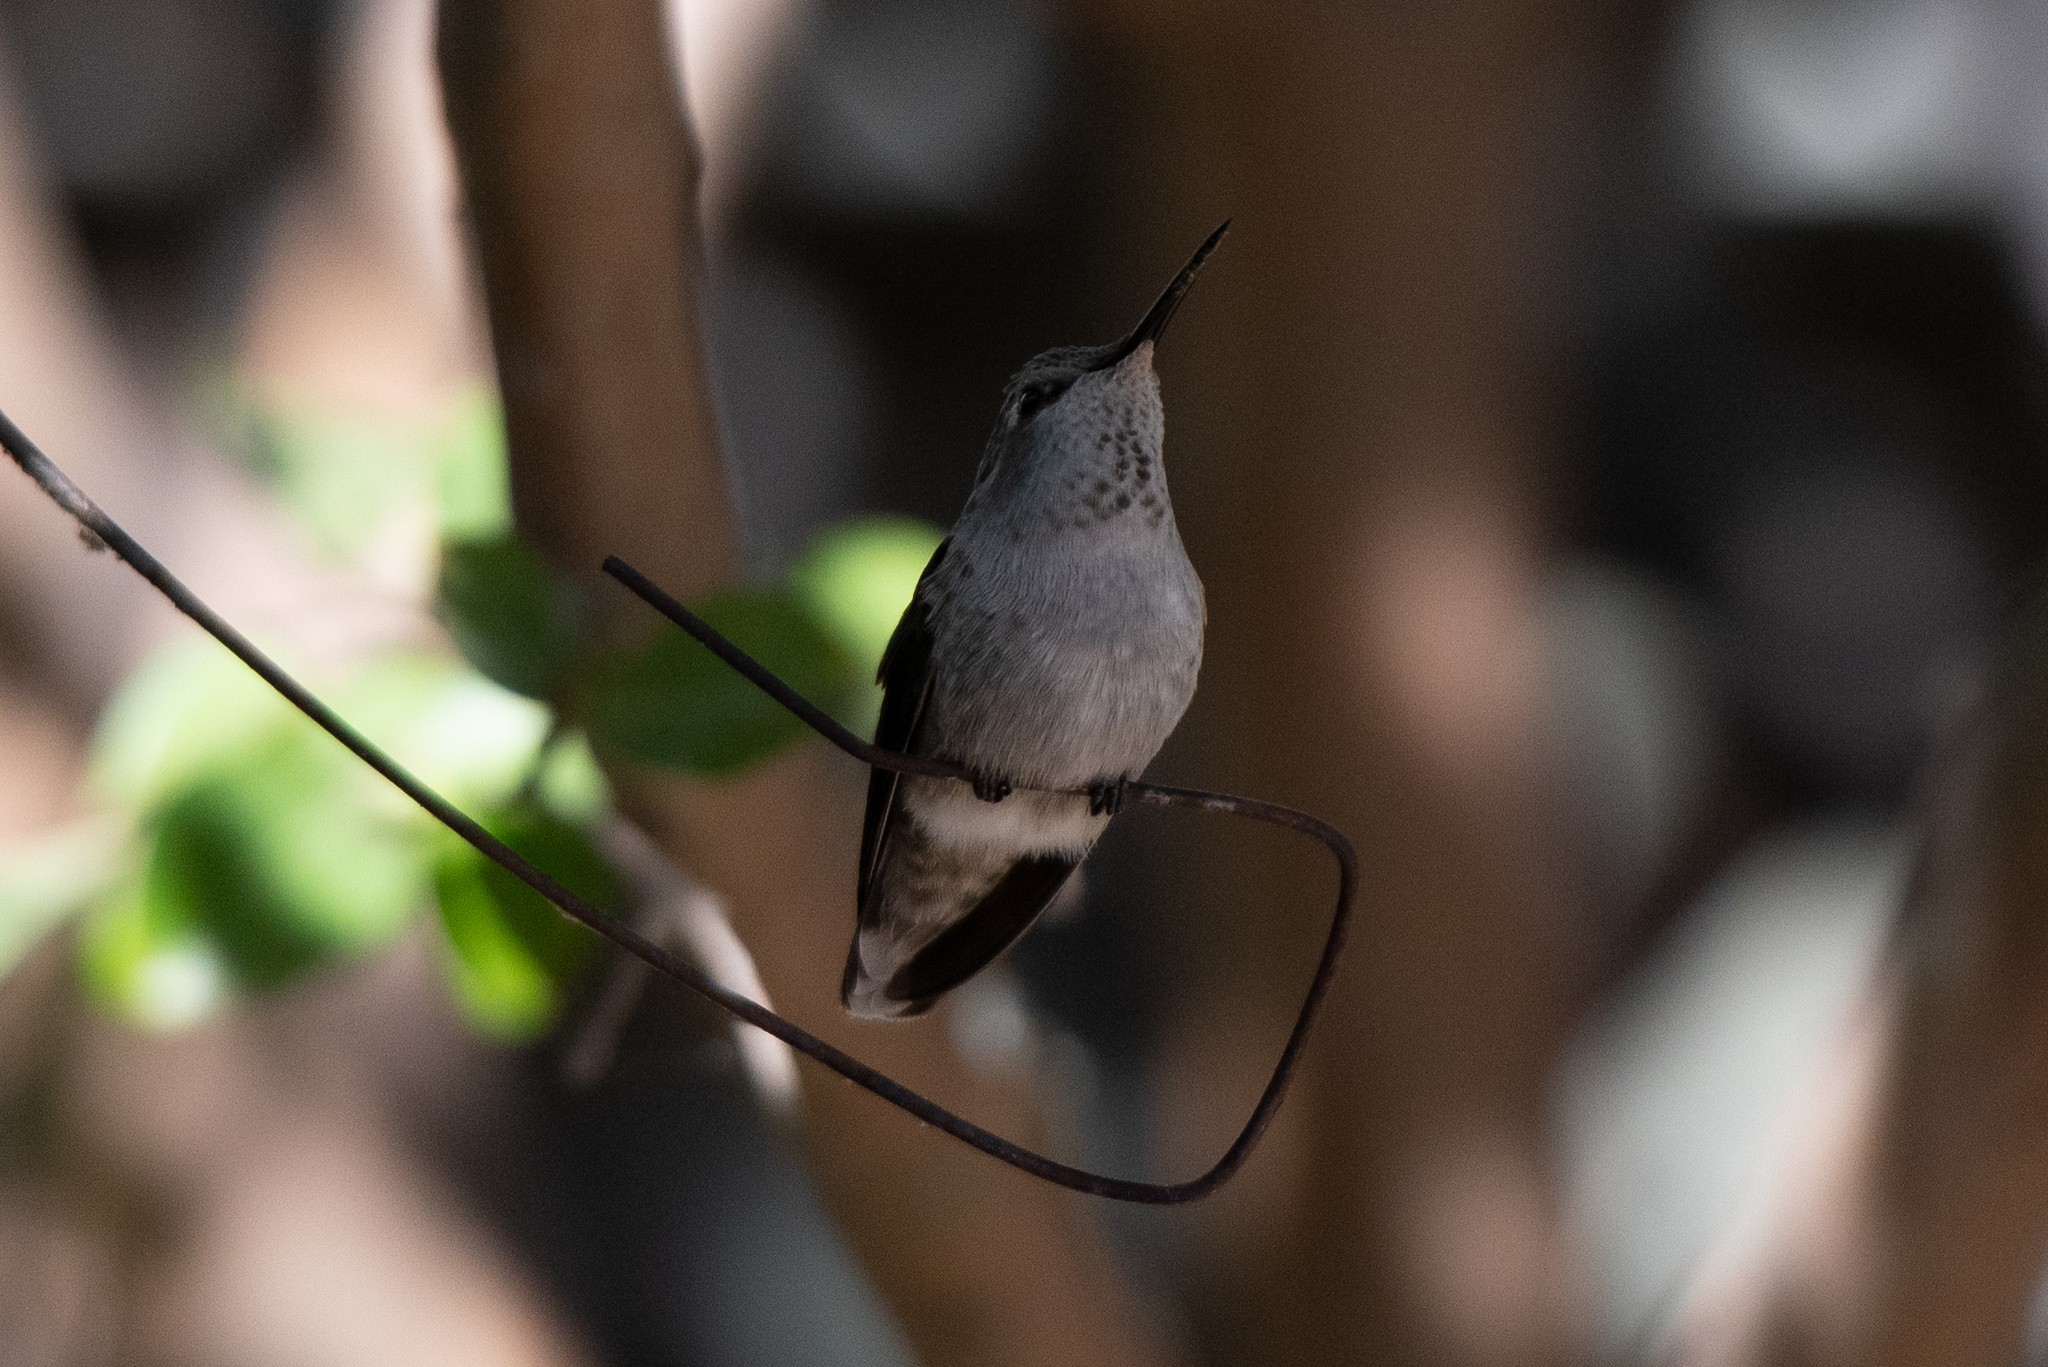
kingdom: Animalia
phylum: Chordata
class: Aves
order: Apodiformes
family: Trochilidae
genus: Calypte
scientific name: Calypte anna
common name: Anna's hummingbird
